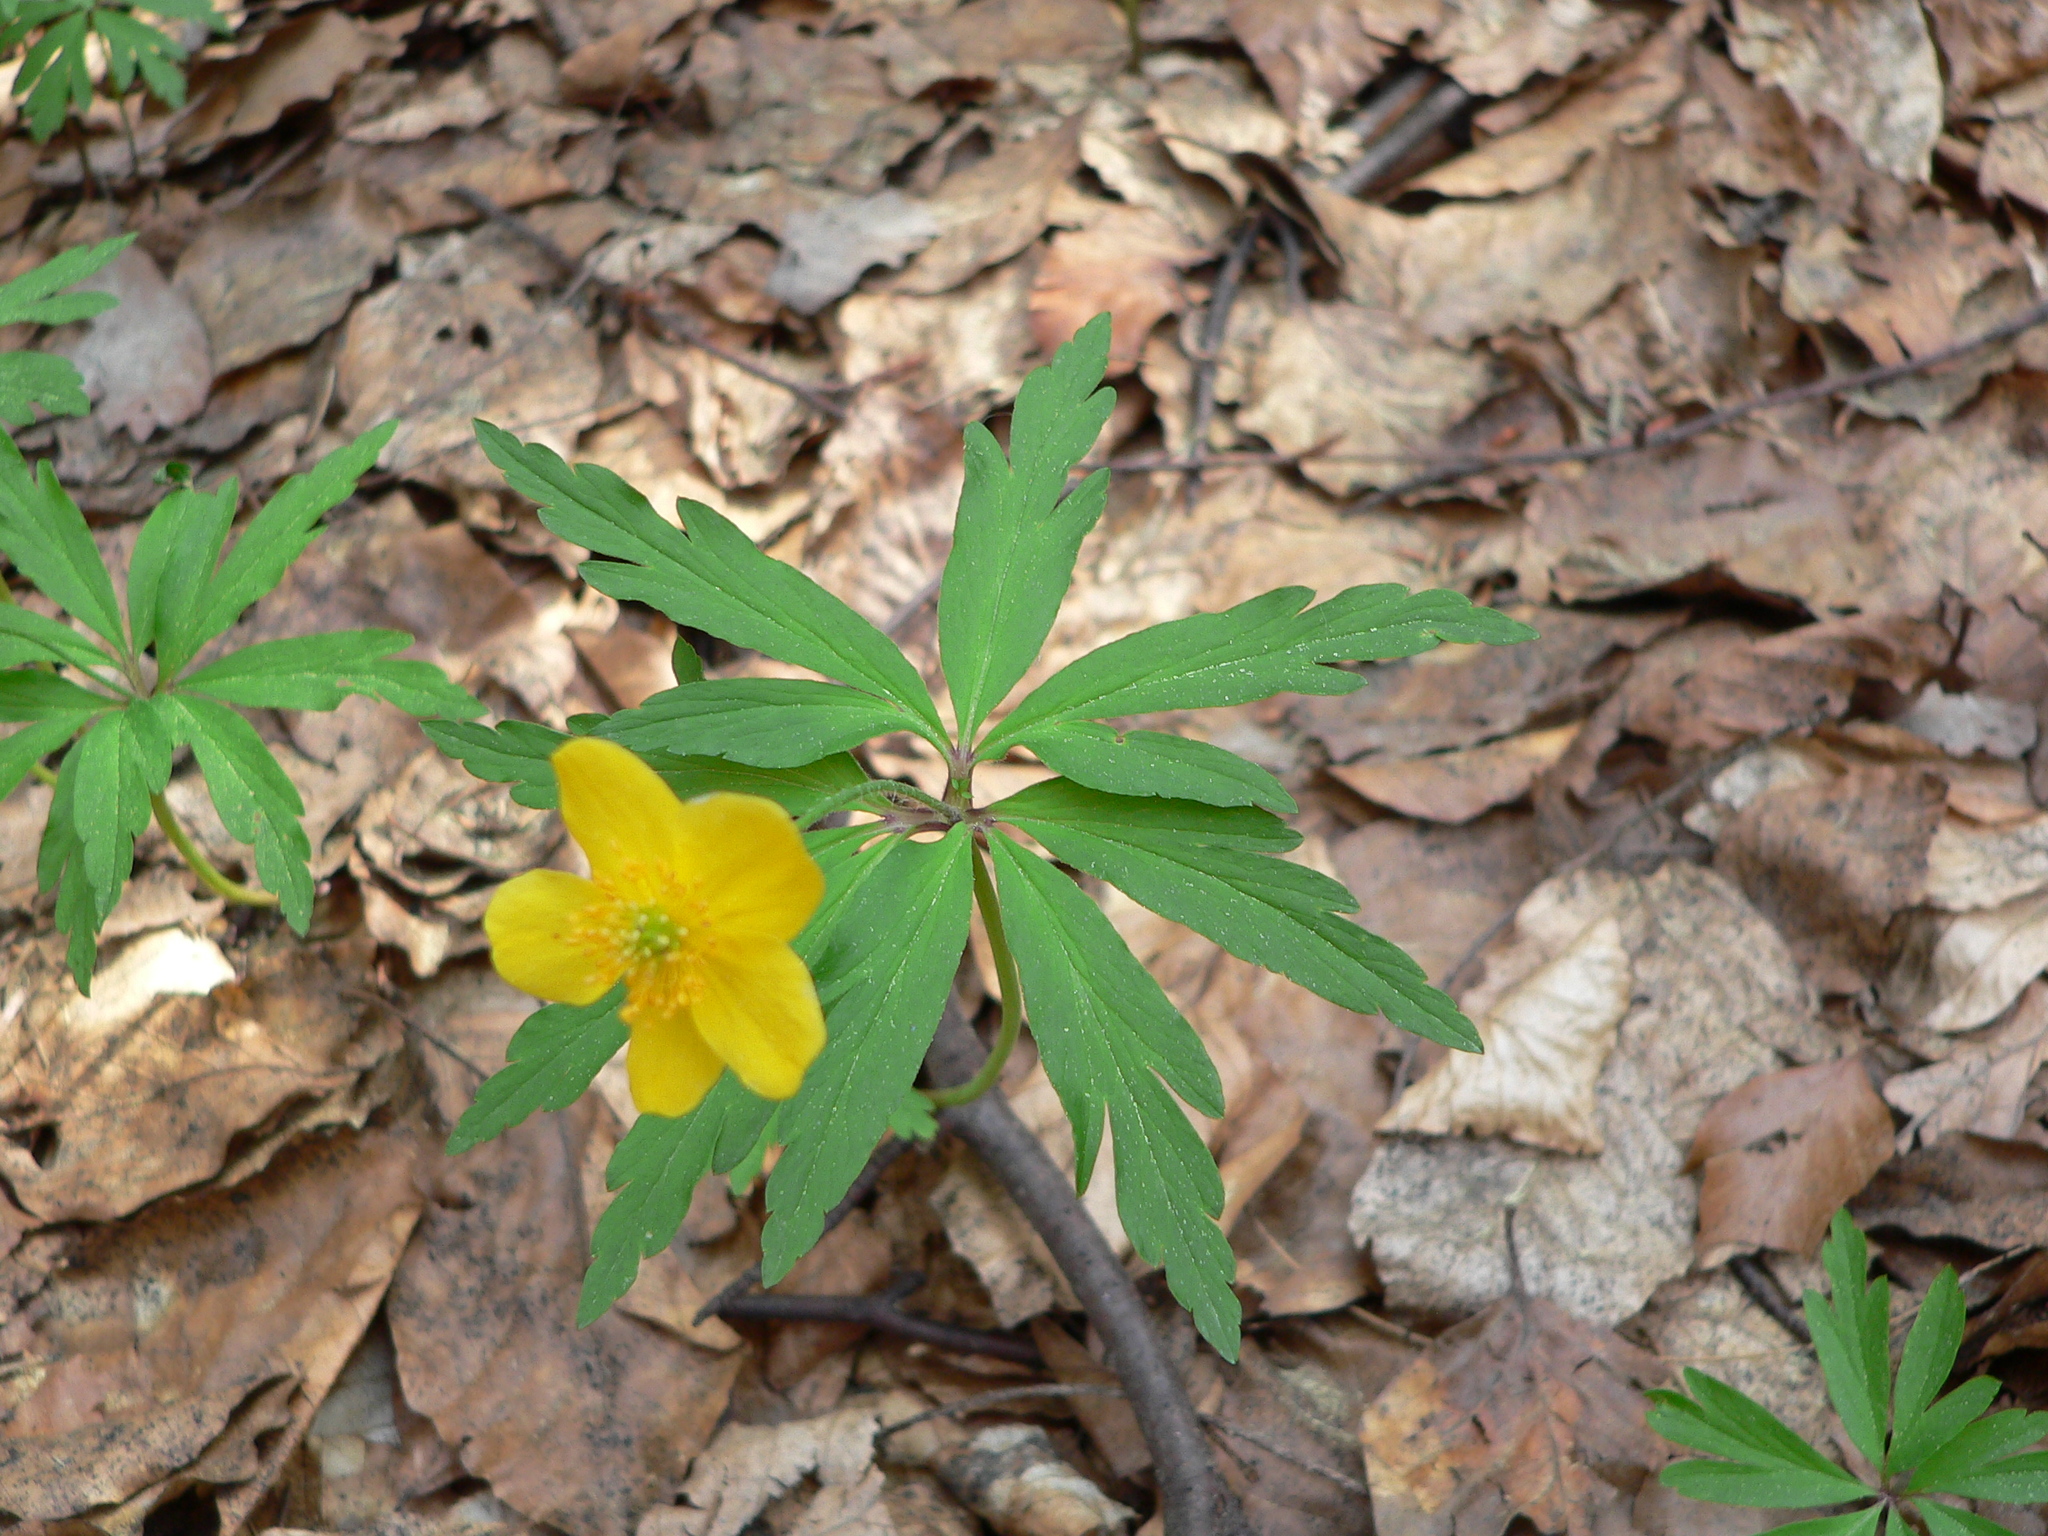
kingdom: Plantae
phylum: Tracheophyta
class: Magnoliopsida
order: Ranunculales
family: Ranunculaceae
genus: Anemone
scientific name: Anemone ranunculoides
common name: Yellow anemone
